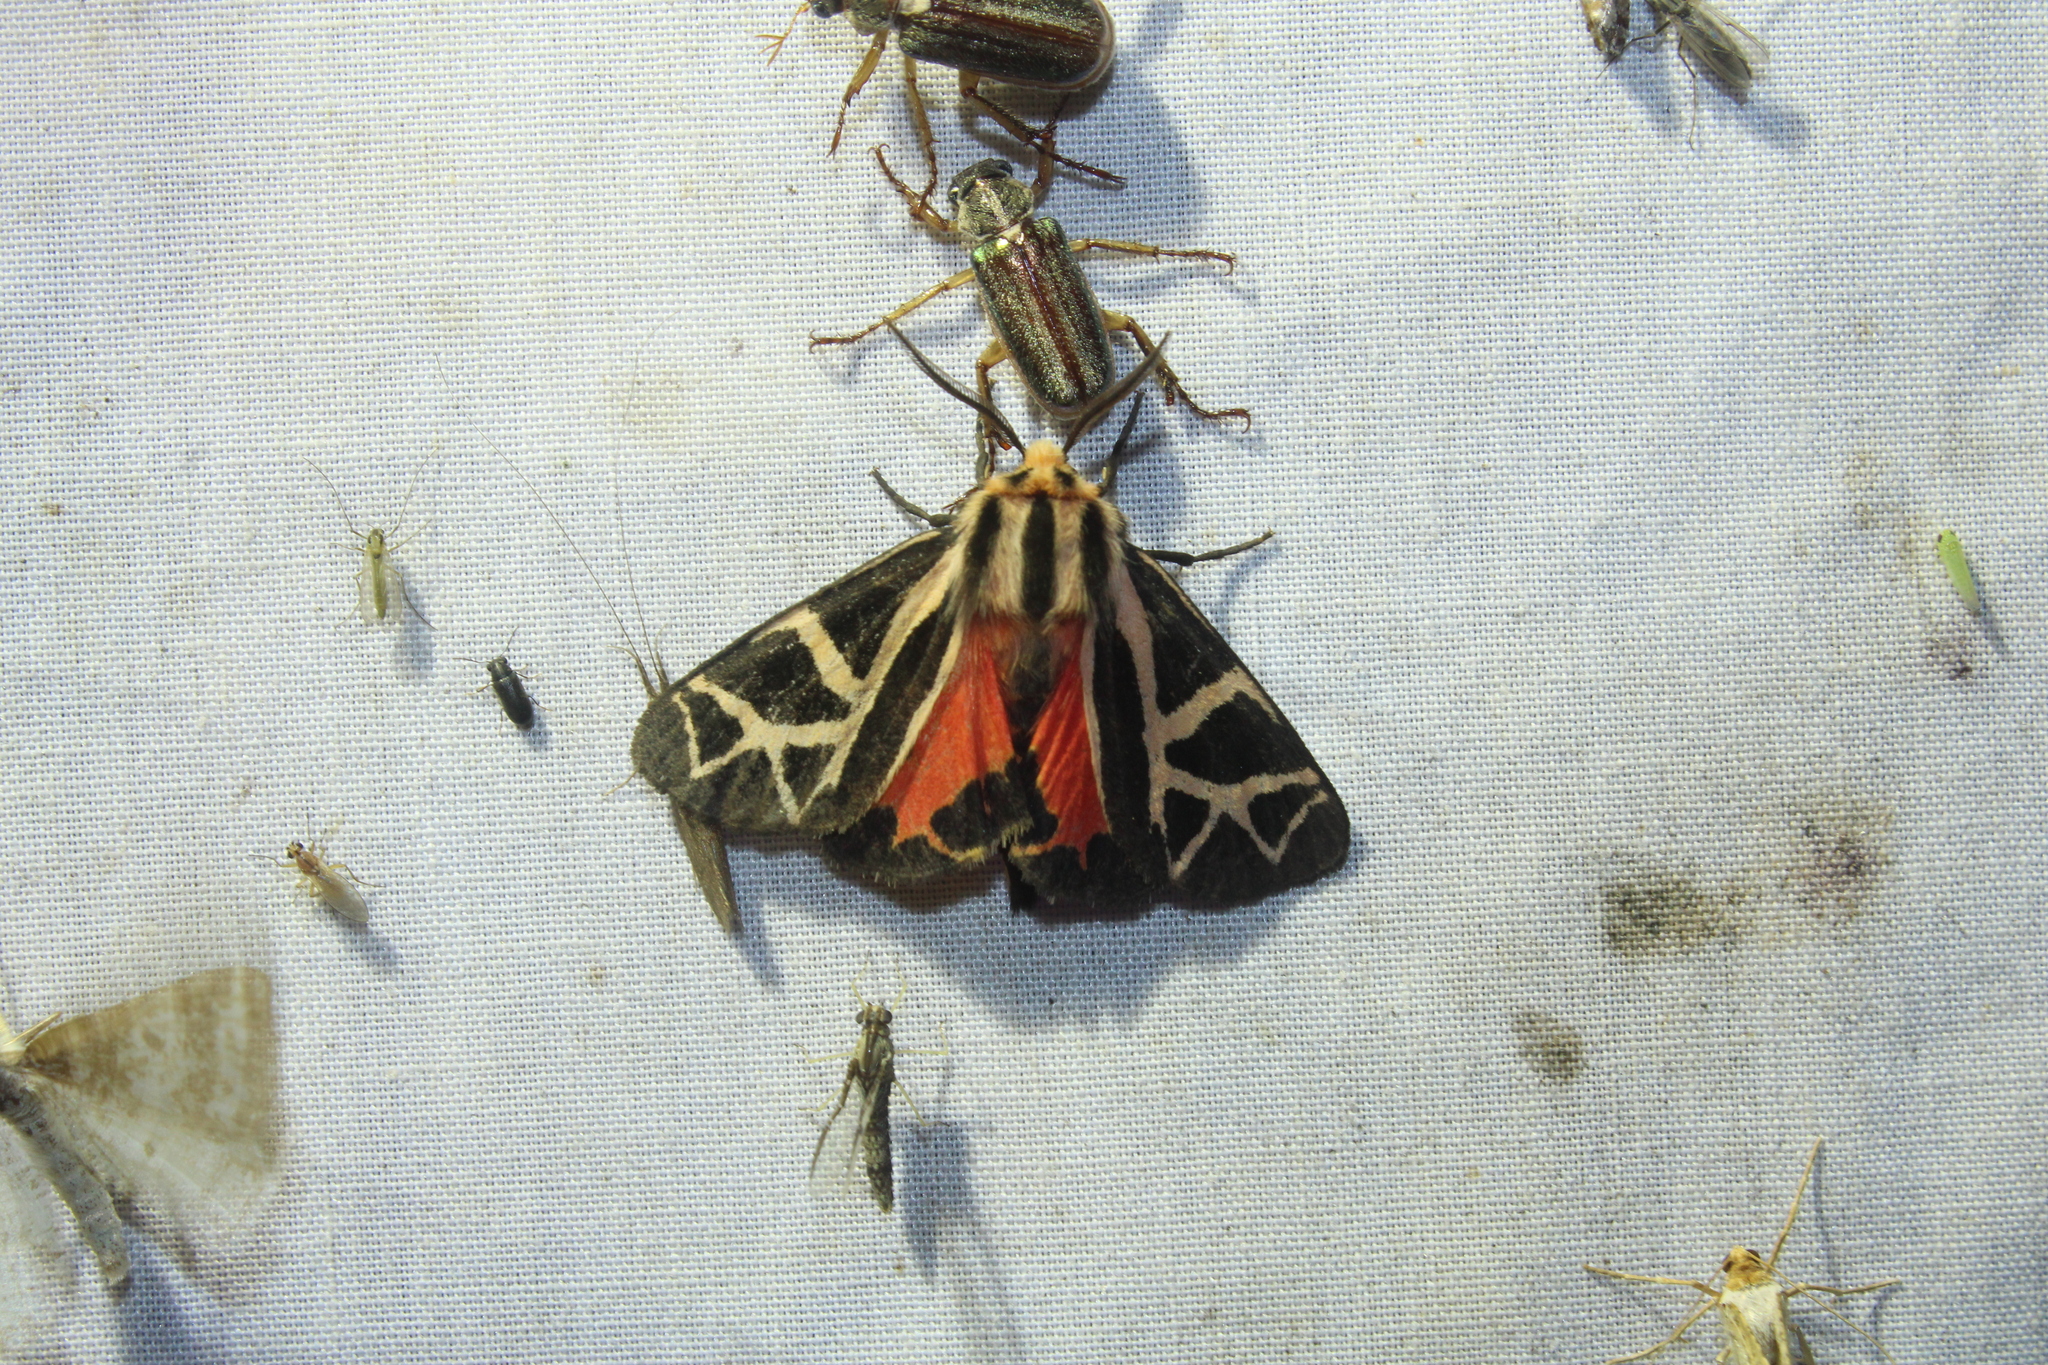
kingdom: Animalia
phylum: Arthropoda
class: Insecta
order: Lepidoptera
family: Erebidae
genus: Apantesis
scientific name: Apantesis
